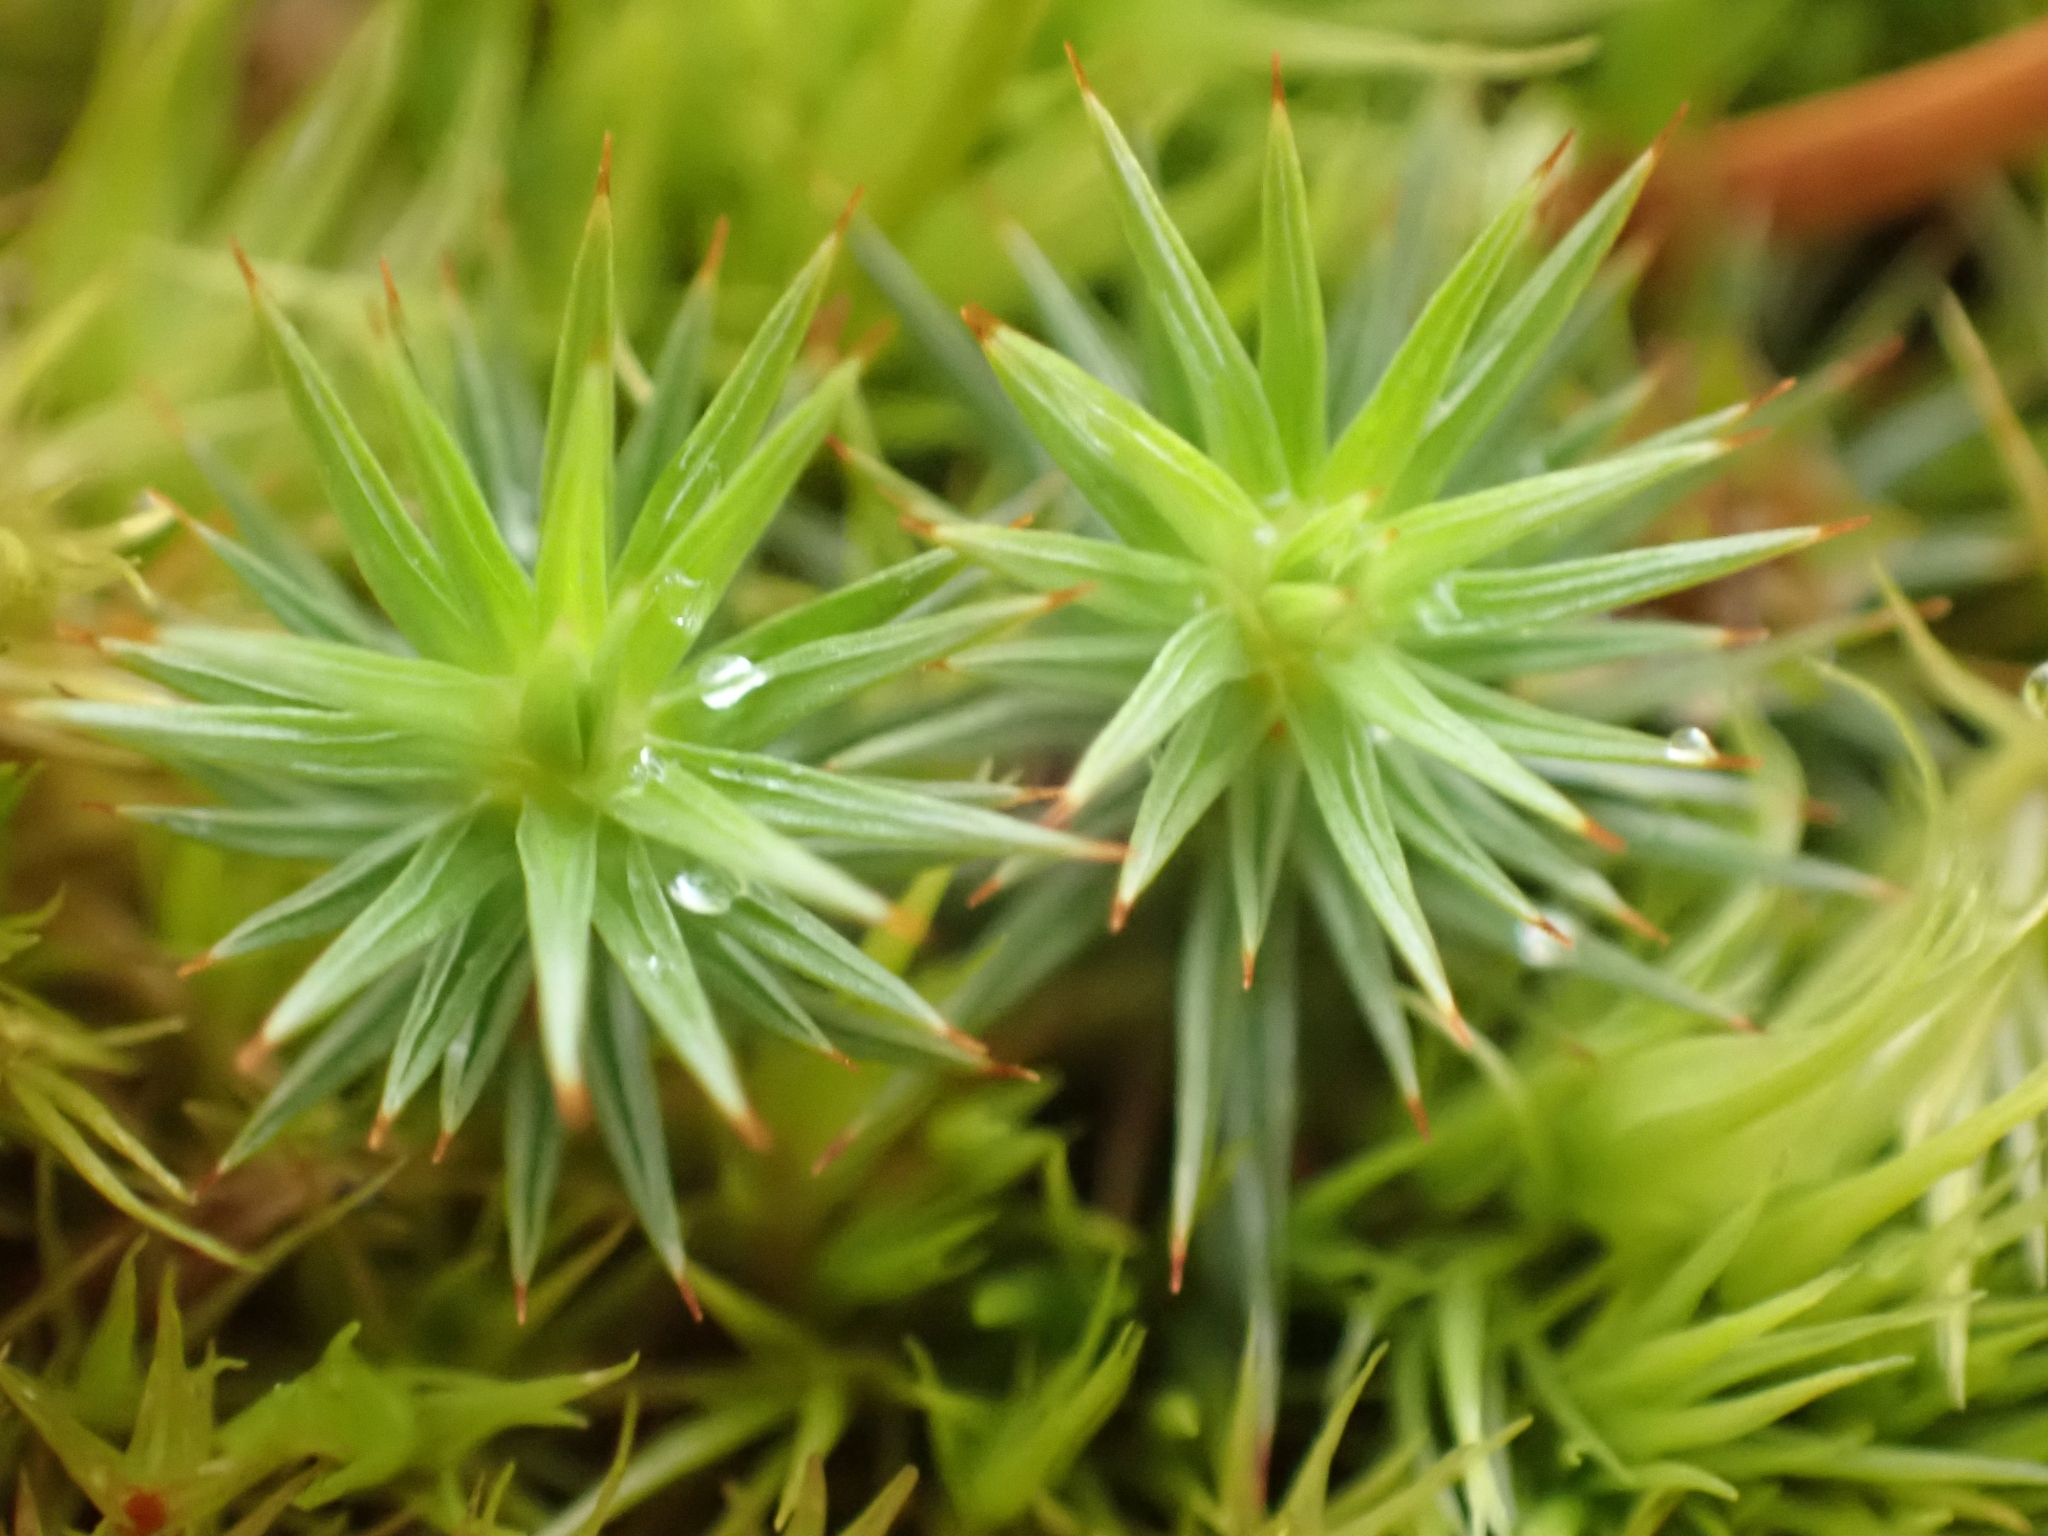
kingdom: Plantae
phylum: Bryophyta
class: Polytrichopsida
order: Polytrichales
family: Polytrichaceae
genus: Polytrichum
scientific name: Polytrichum juniperinum
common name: Juniper haircap moss
